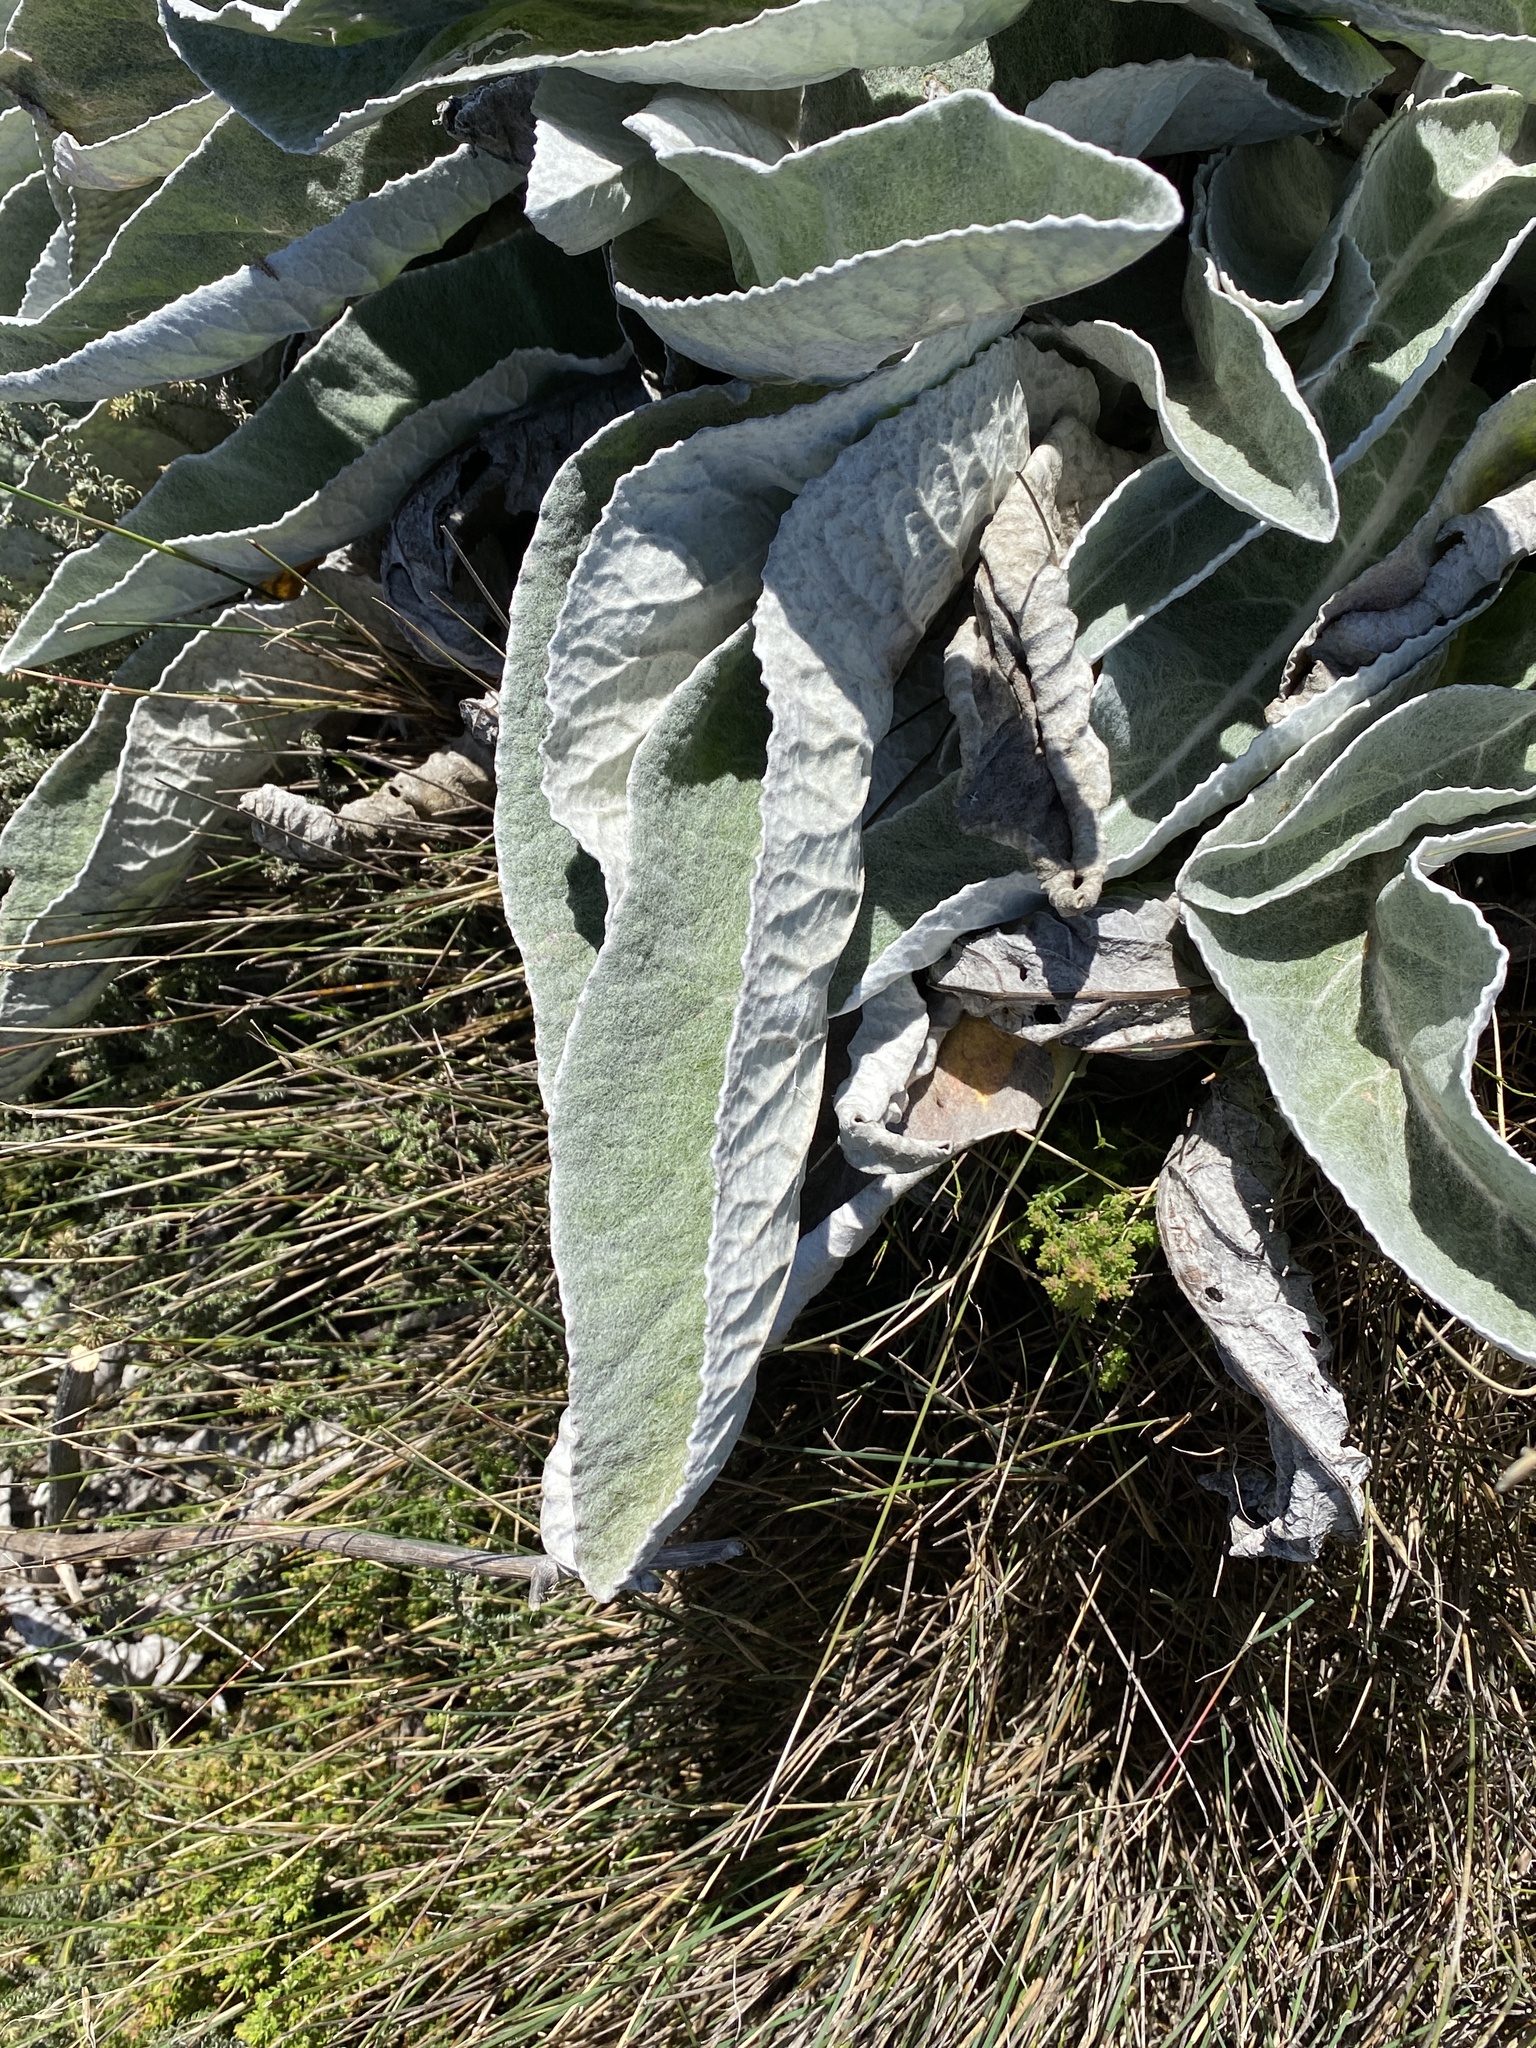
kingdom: Plantae
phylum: Tracheophyta
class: Magnoliopsida
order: Apiales
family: Apiaceae
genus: Hermas
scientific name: Hermas gigantea
